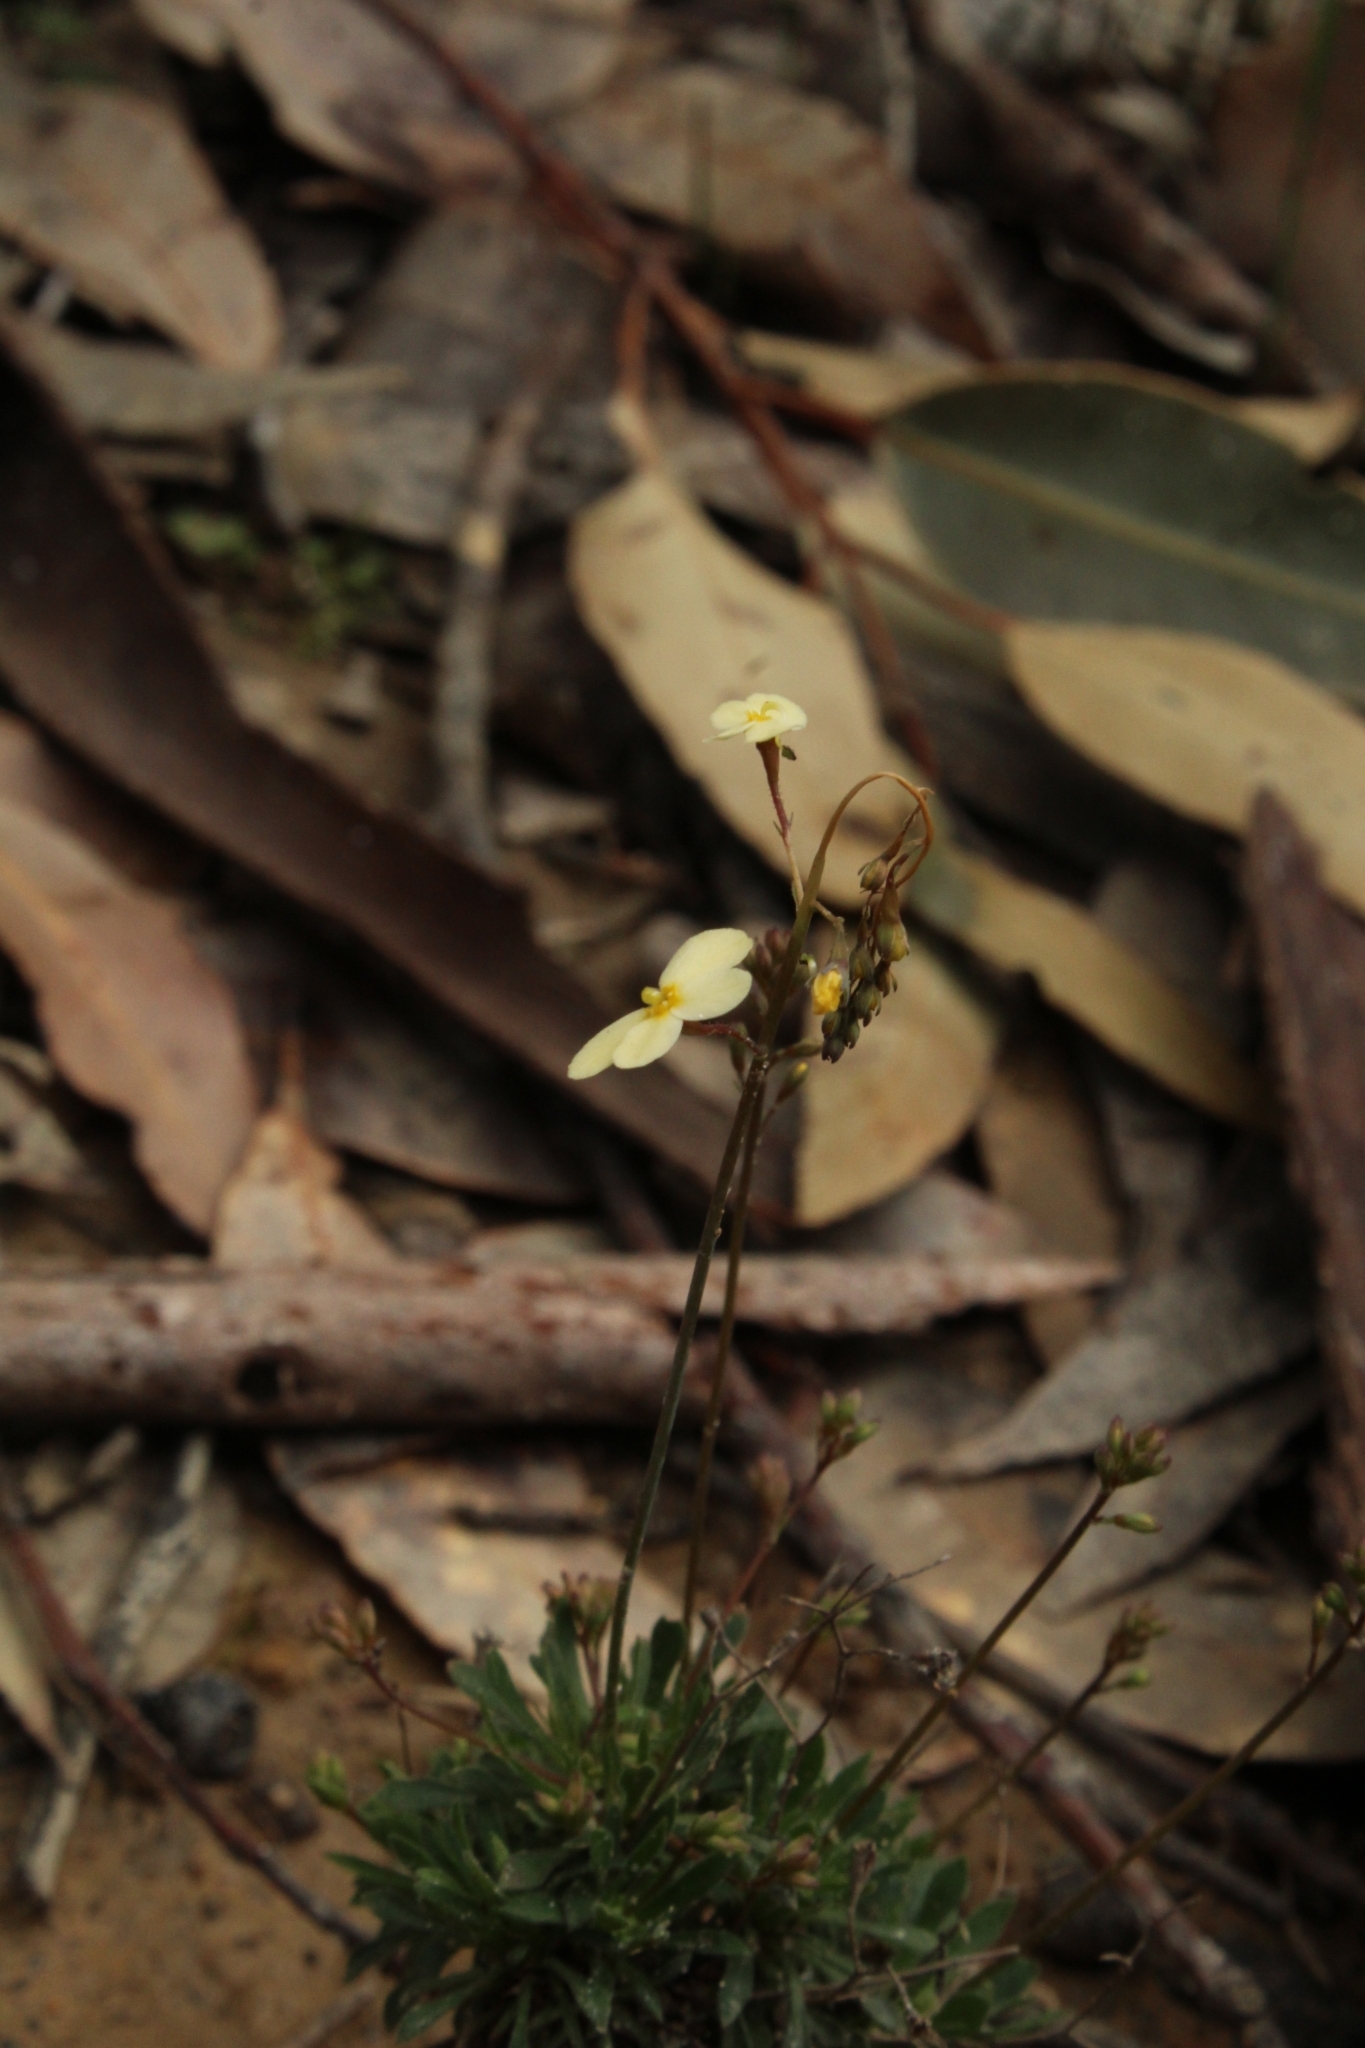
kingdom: Plantae
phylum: Tracheophyta
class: Magnoliopsida
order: Asterales
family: Stylidiaceae
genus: Stylidium
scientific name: Stylidium acuminatum
